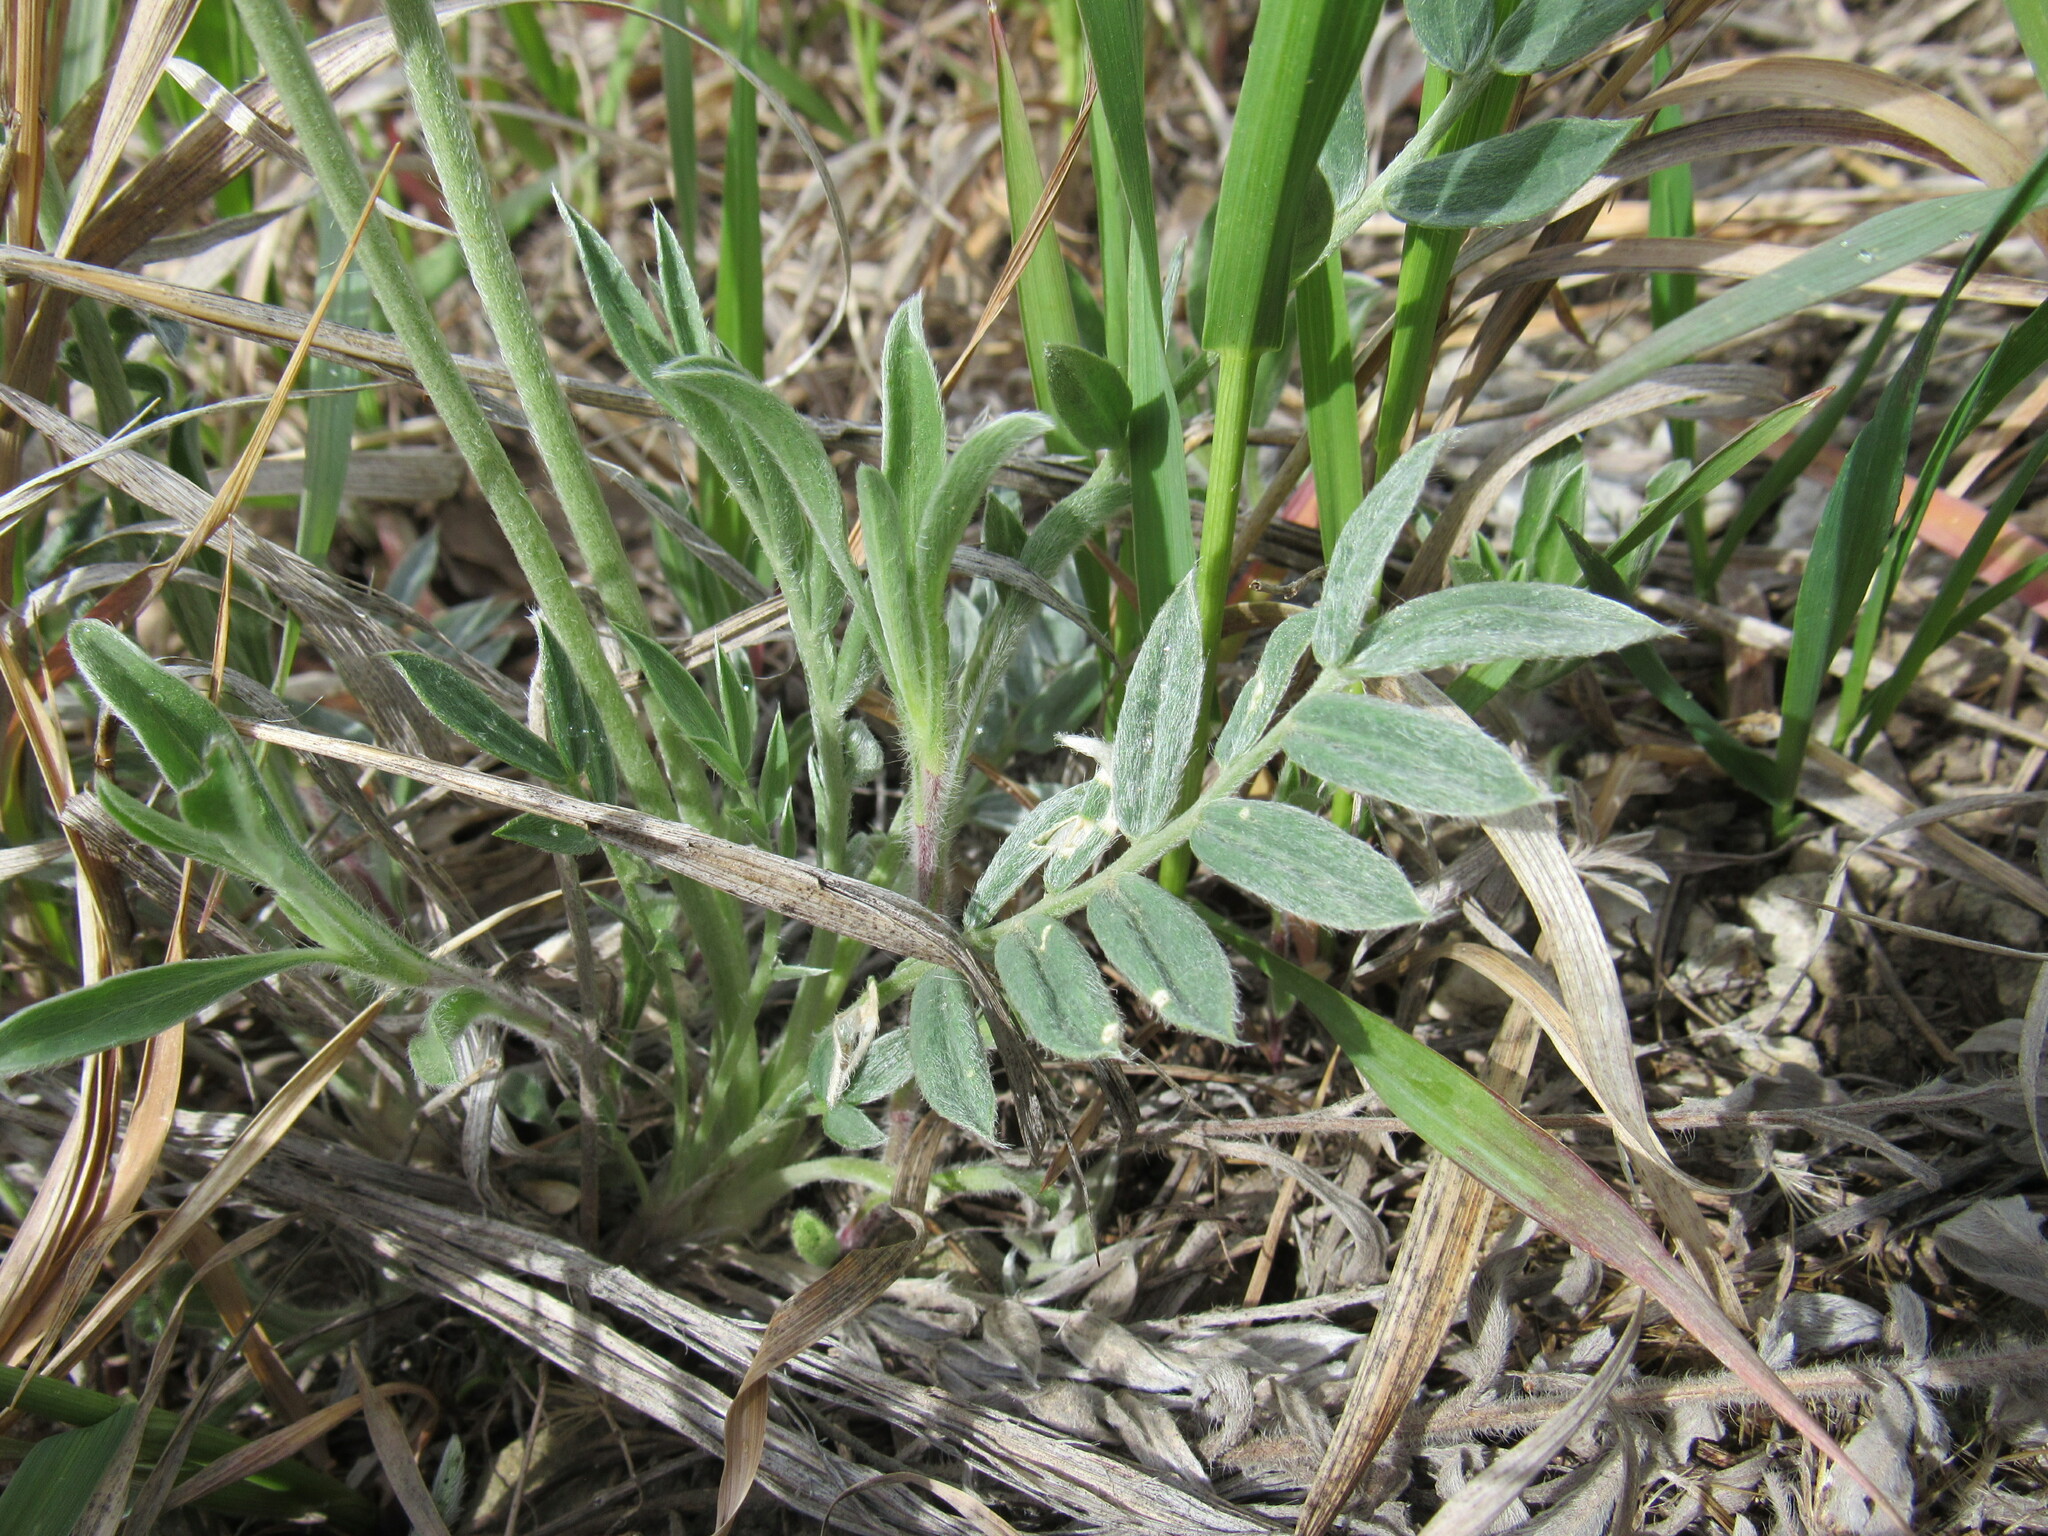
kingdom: Plantae
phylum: Tracheophyta
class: Magnoliopsida
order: Fabales
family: Fabaceae
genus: Oxytropis
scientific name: Oxytropis sericea
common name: Silky locoweed
